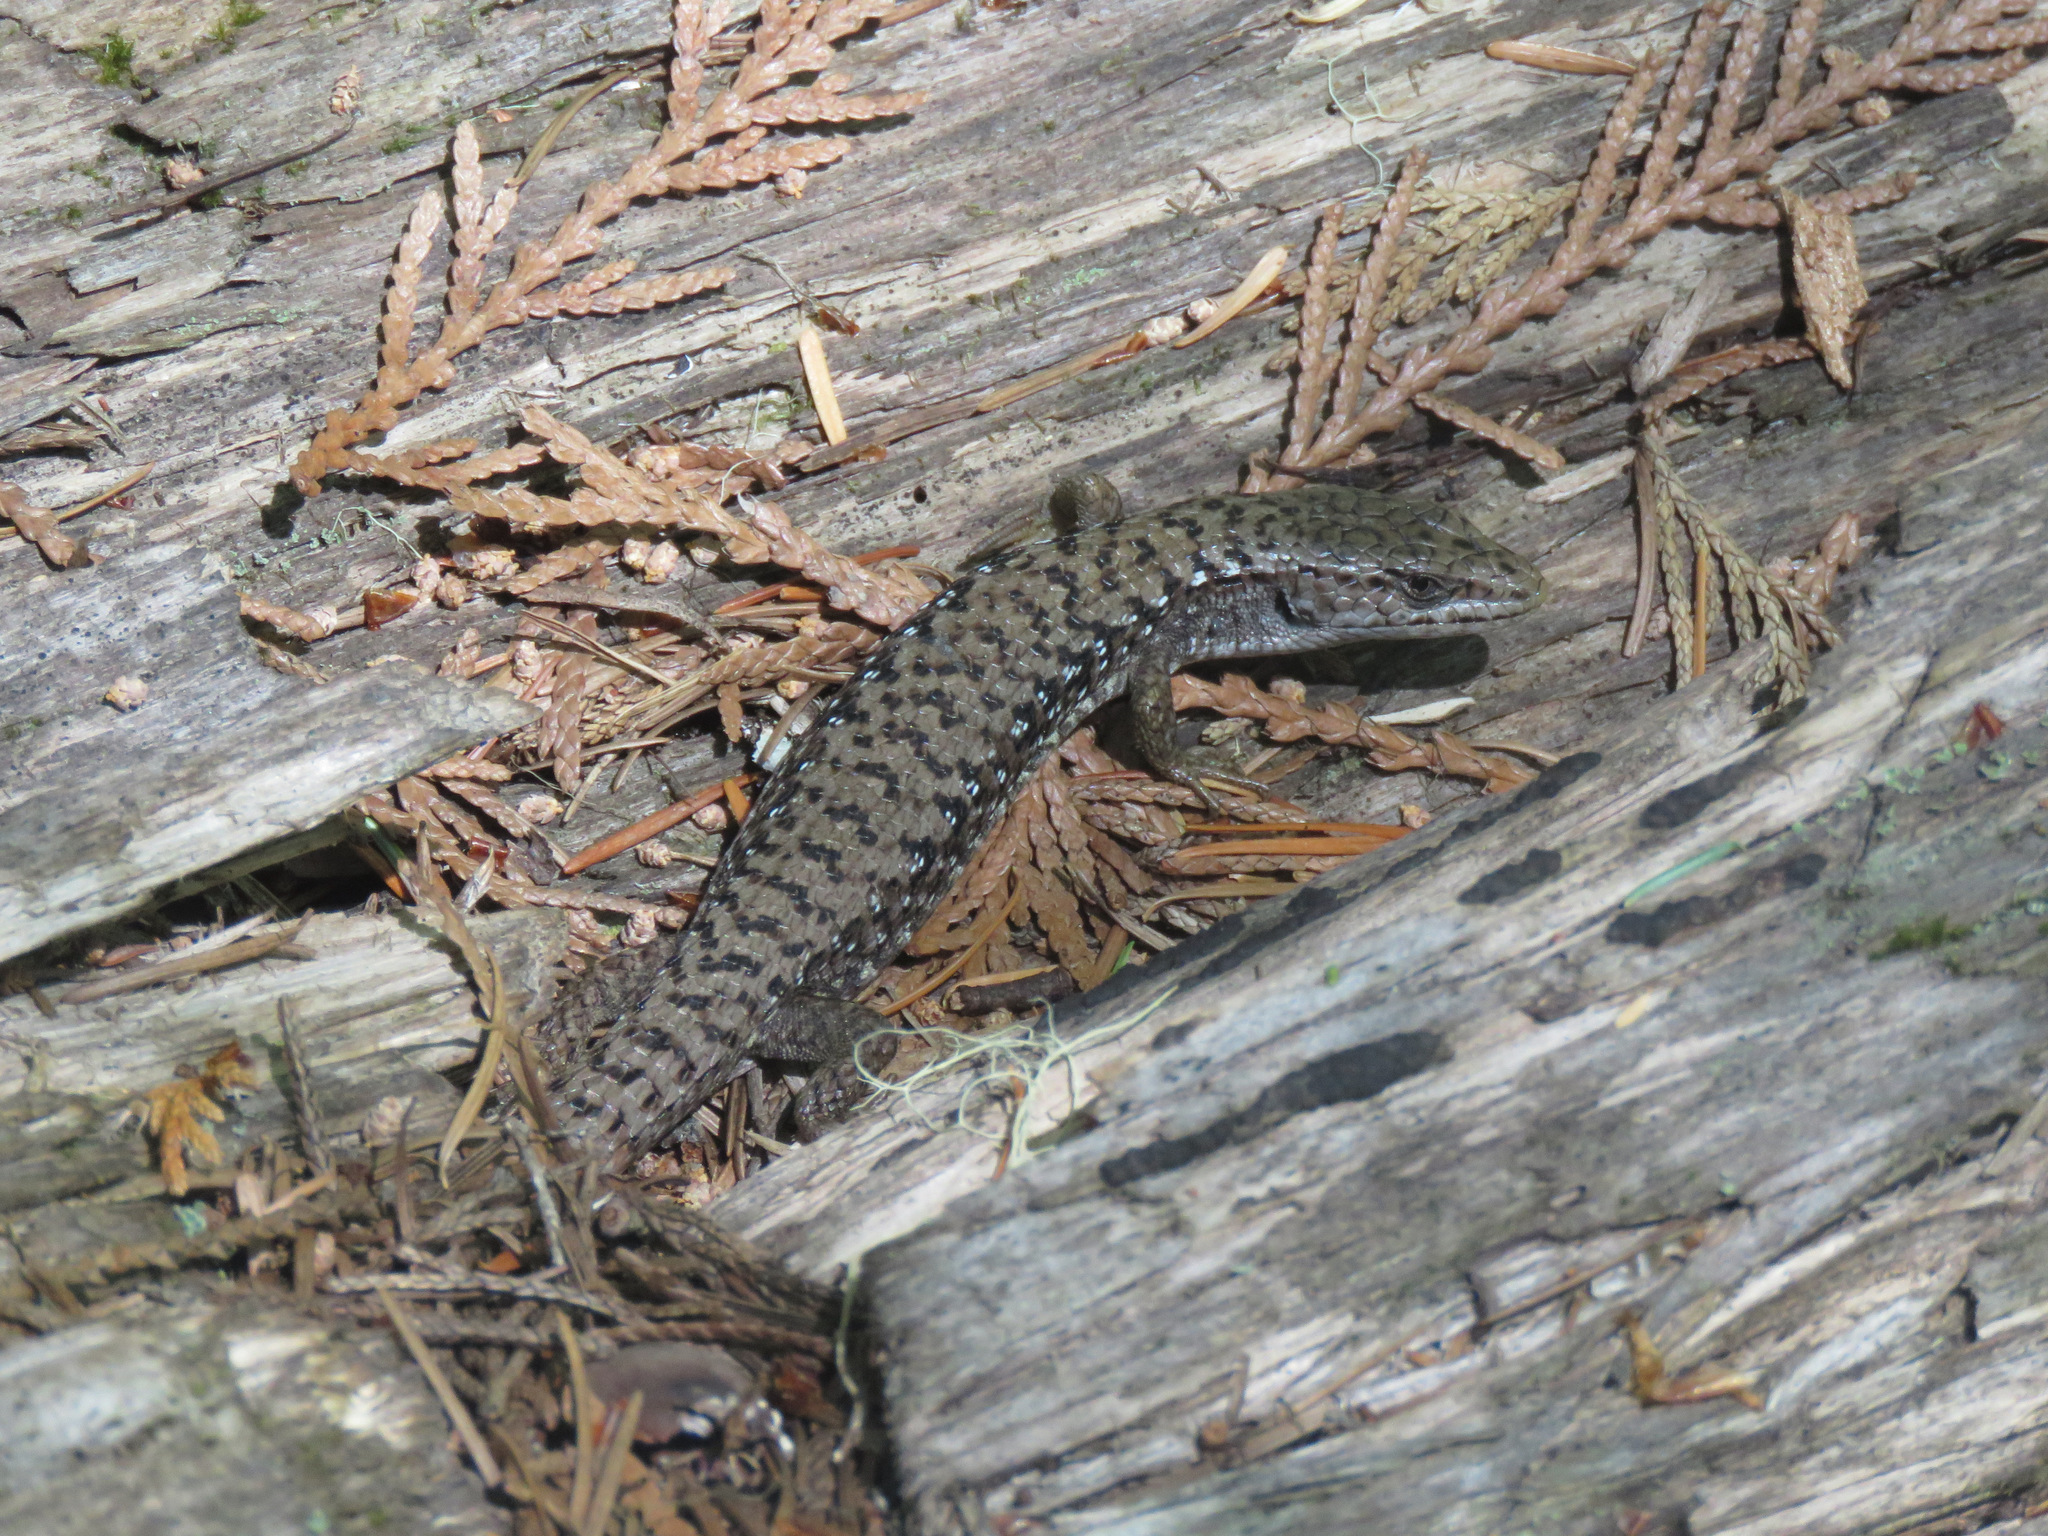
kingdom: Animalia
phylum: Chordata
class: Squamata
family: Anguidae
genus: Elgaria
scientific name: Elgaria coerulea
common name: Northern alligator lizard
